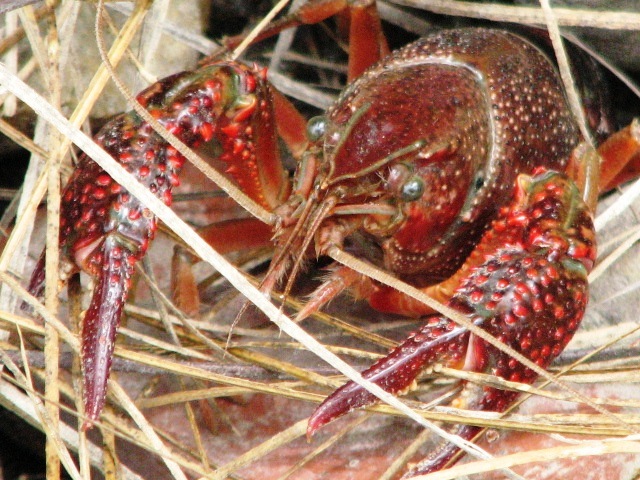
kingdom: Animalia
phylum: Arthropoda
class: Malacostraca
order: Decapoda
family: Cambaridae
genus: Procambarus
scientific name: Procambarus clarkii
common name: Red swamp crayfish
